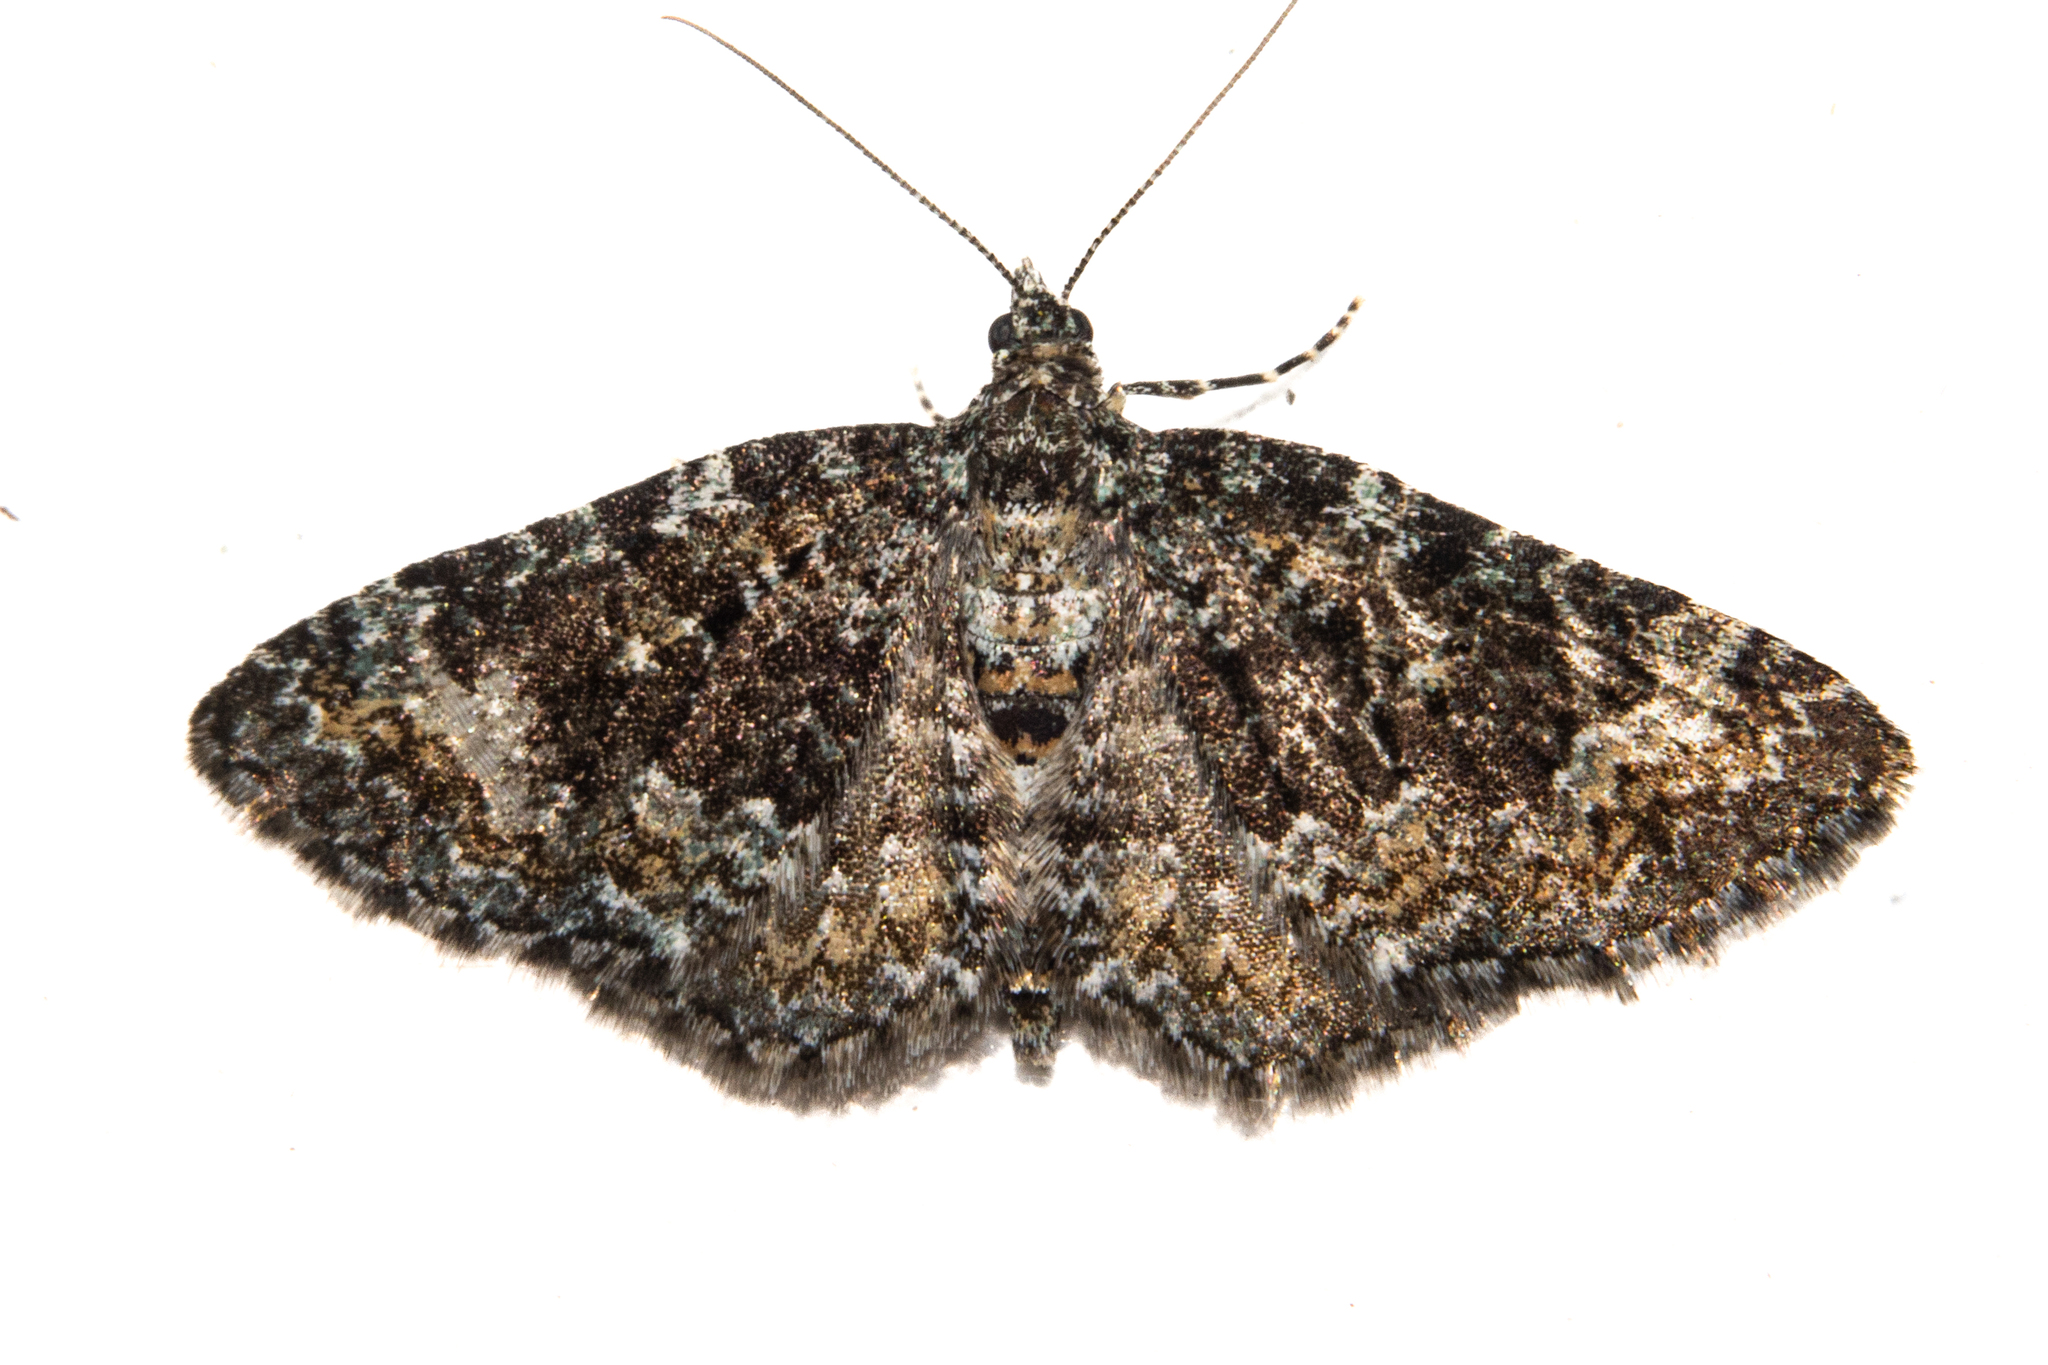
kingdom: Animalia
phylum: Arthropoda
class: Insecta
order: Lepidoptera
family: Geometridae
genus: Chloroclystis
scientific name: Chloroclystis nereis
